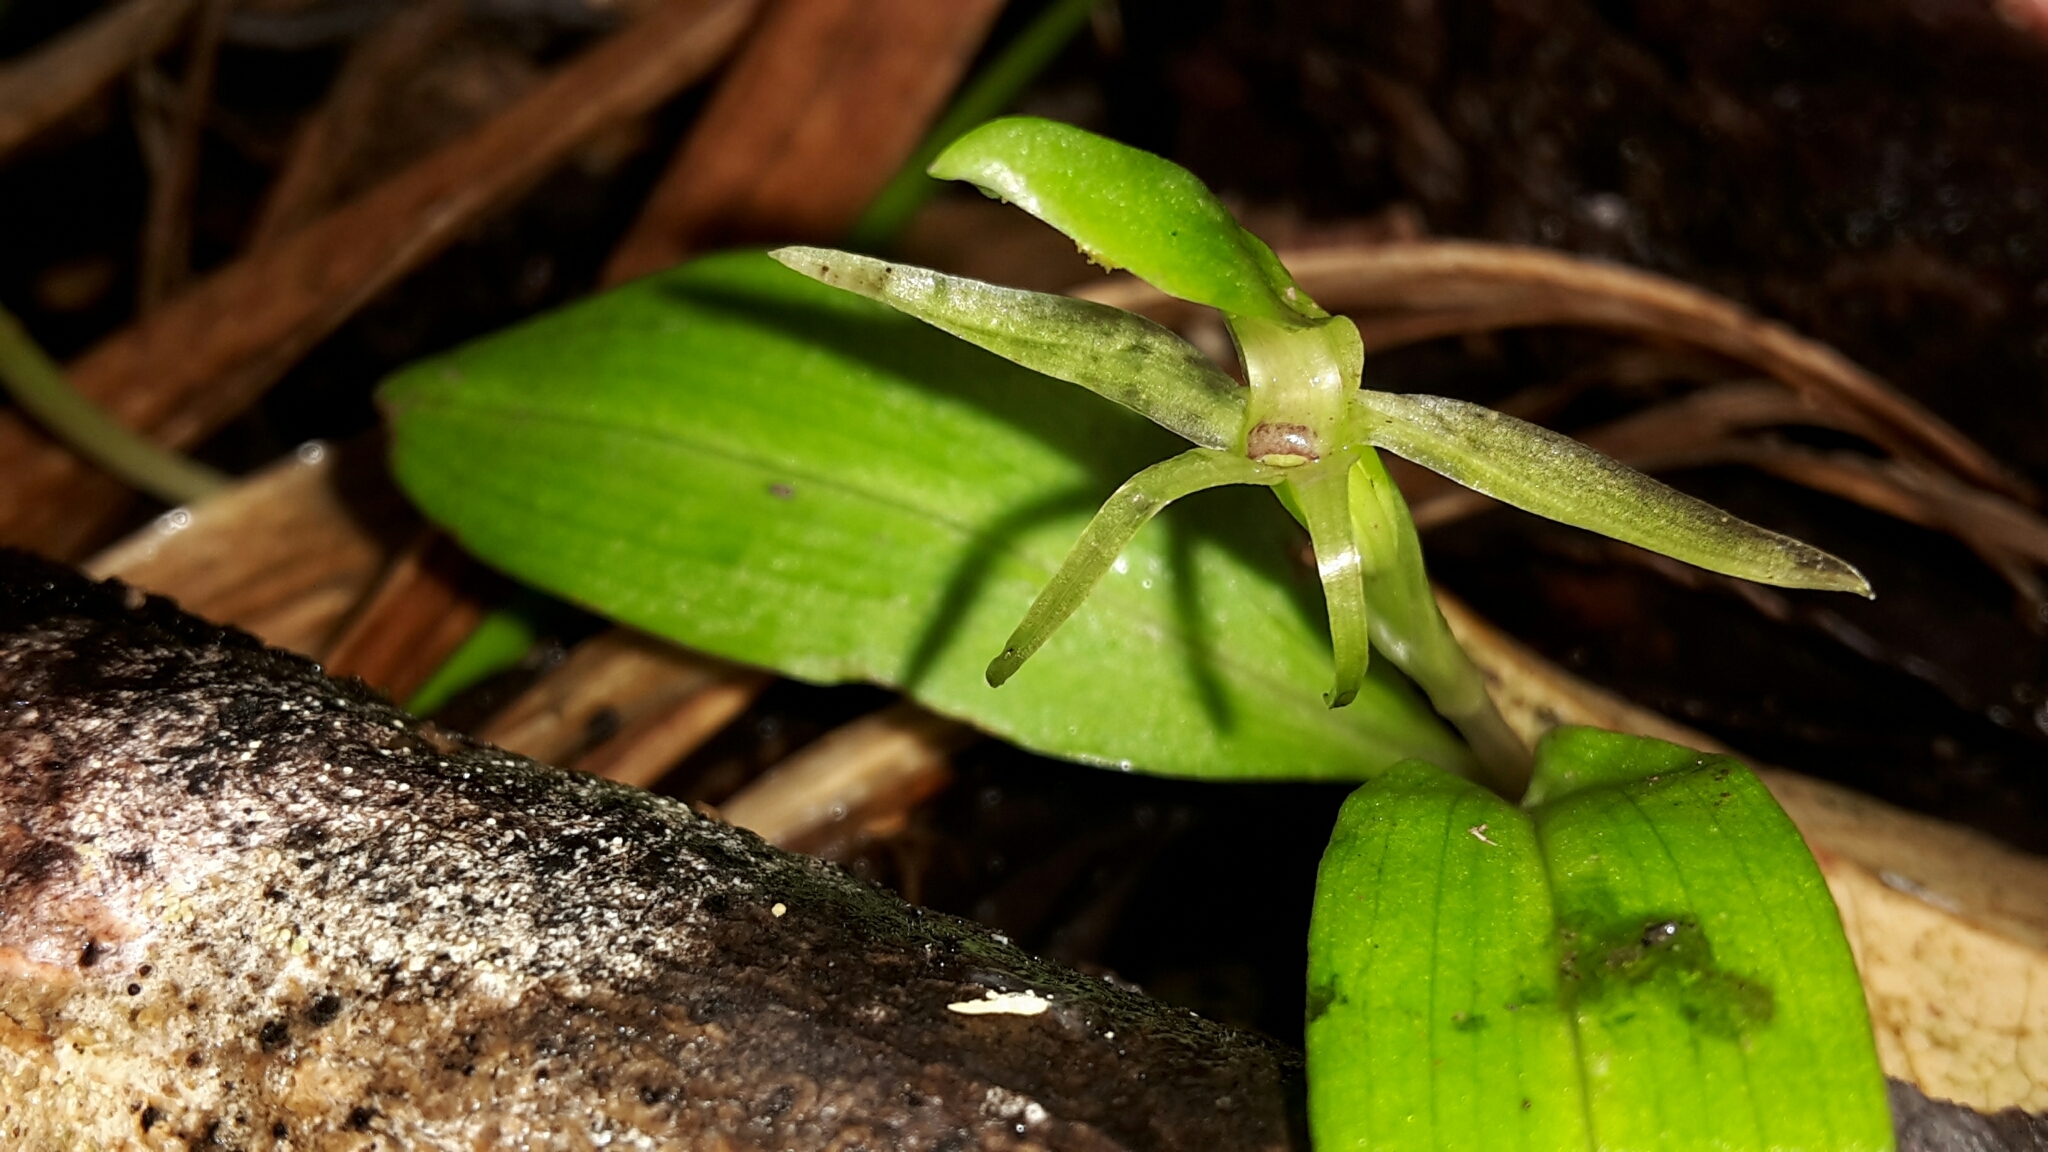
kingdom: Plantae
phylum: Tracheophyta
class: Liliopsida
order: Asparagales
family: Orchidaceae
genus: Chiloglottis
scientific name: Chiloglottis cornuta
